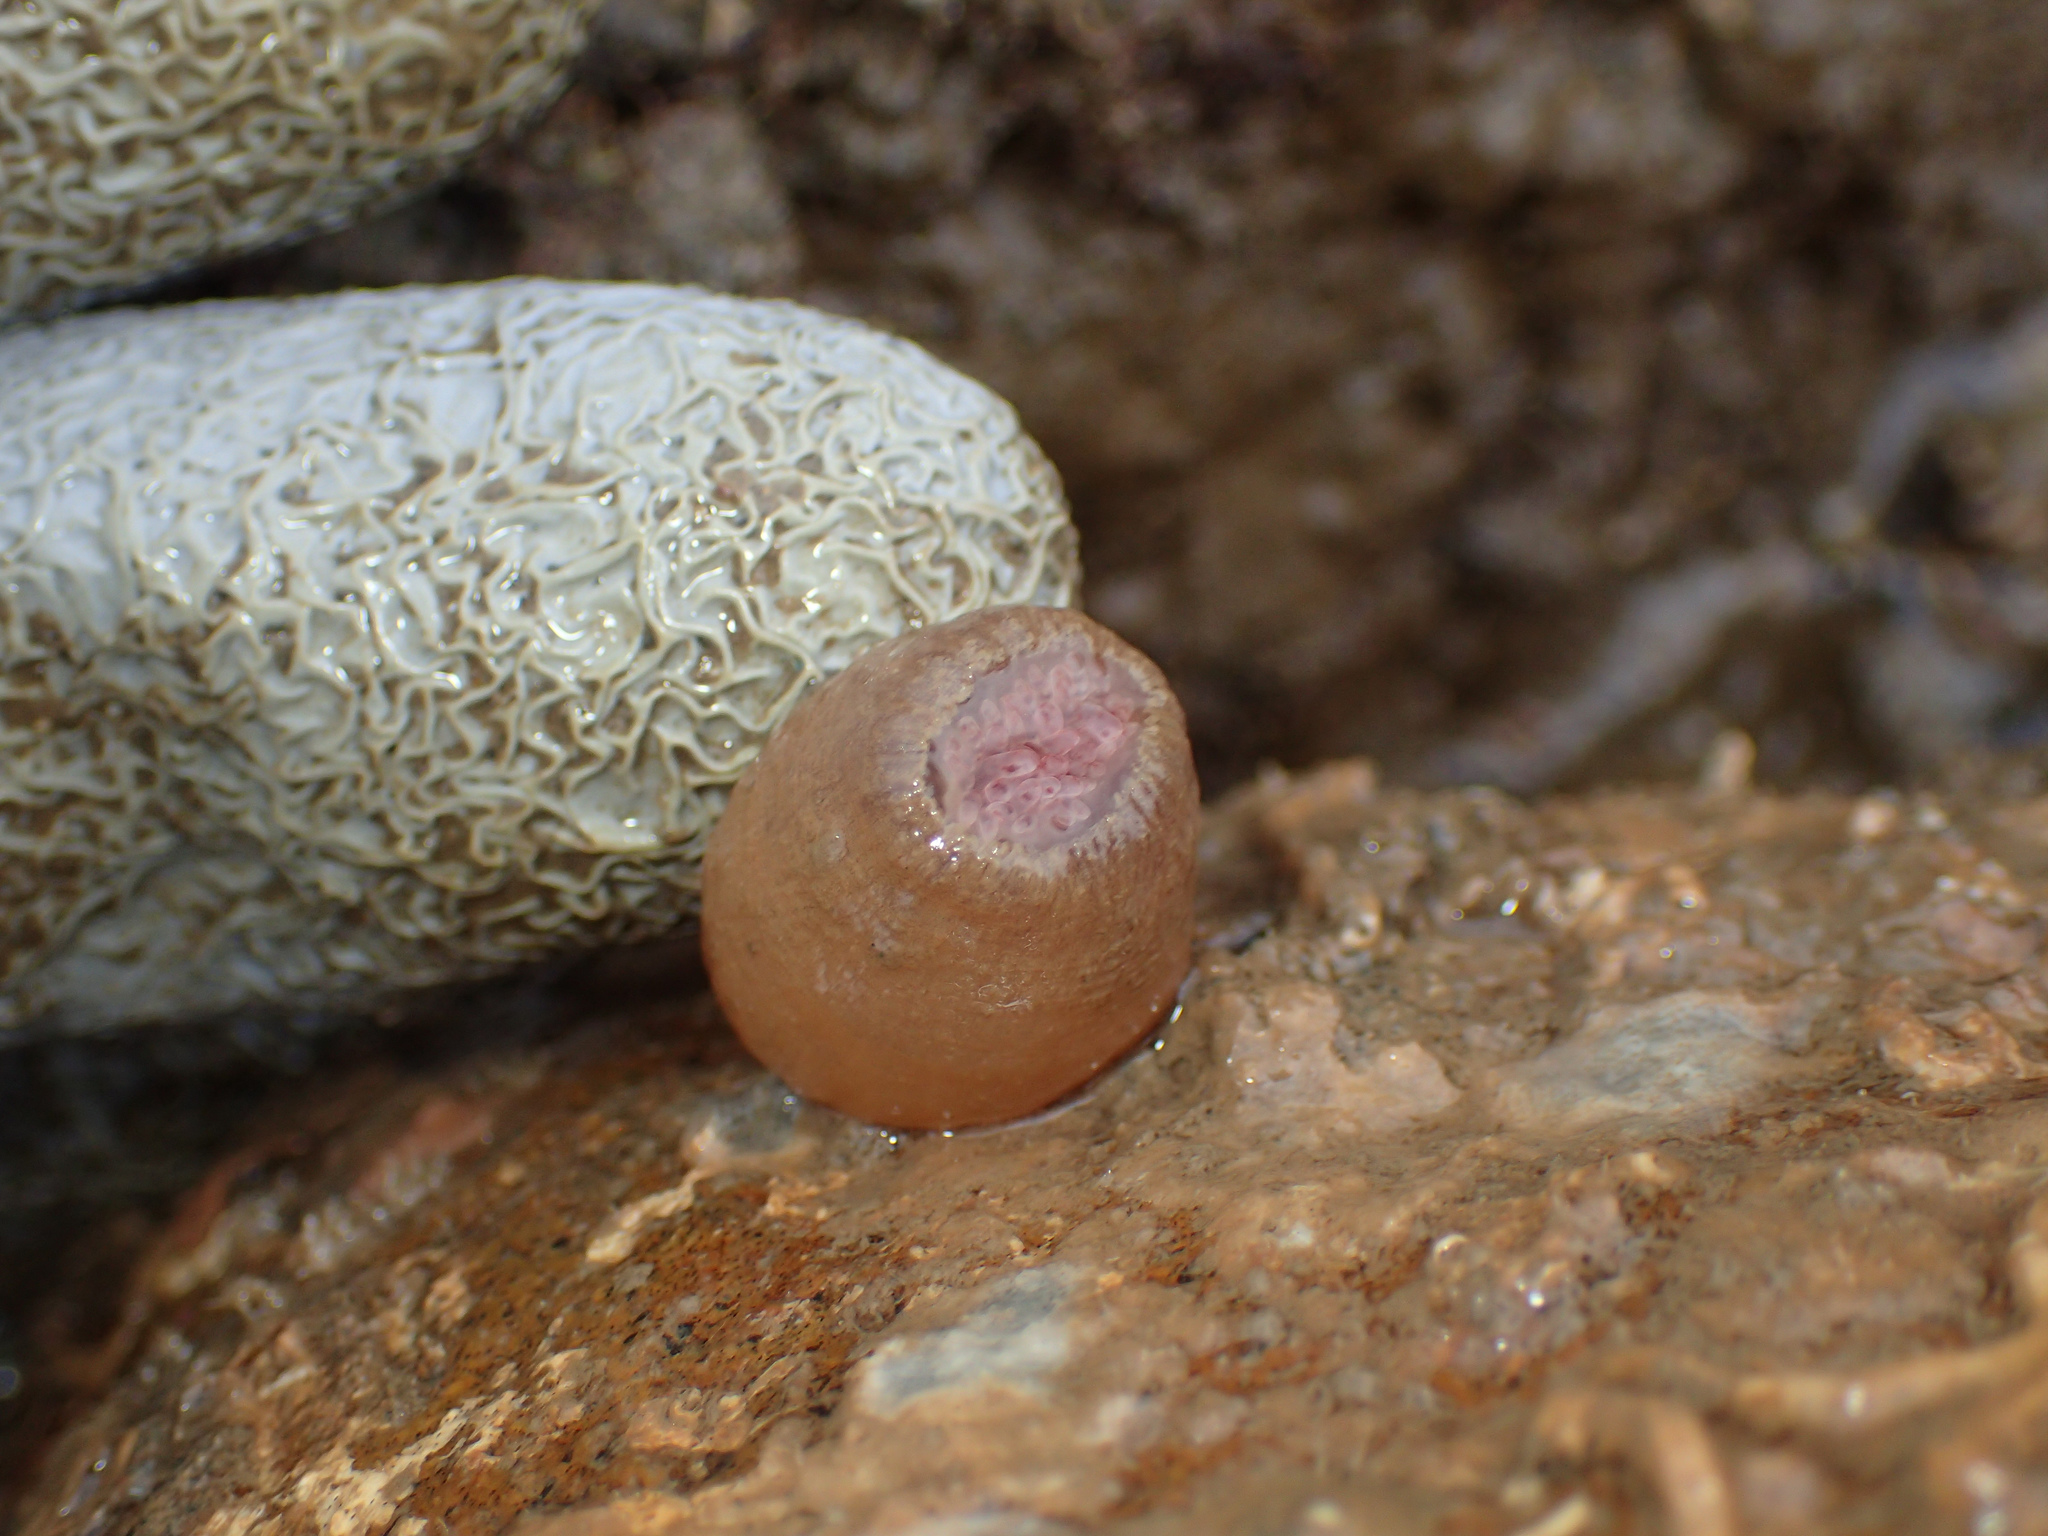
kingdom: Animalia
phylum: Cnidaria
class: Anthozoa
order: Actiniaria
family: Andvakiidae
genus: Telmatactis
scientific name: Telmatactis panamensis
